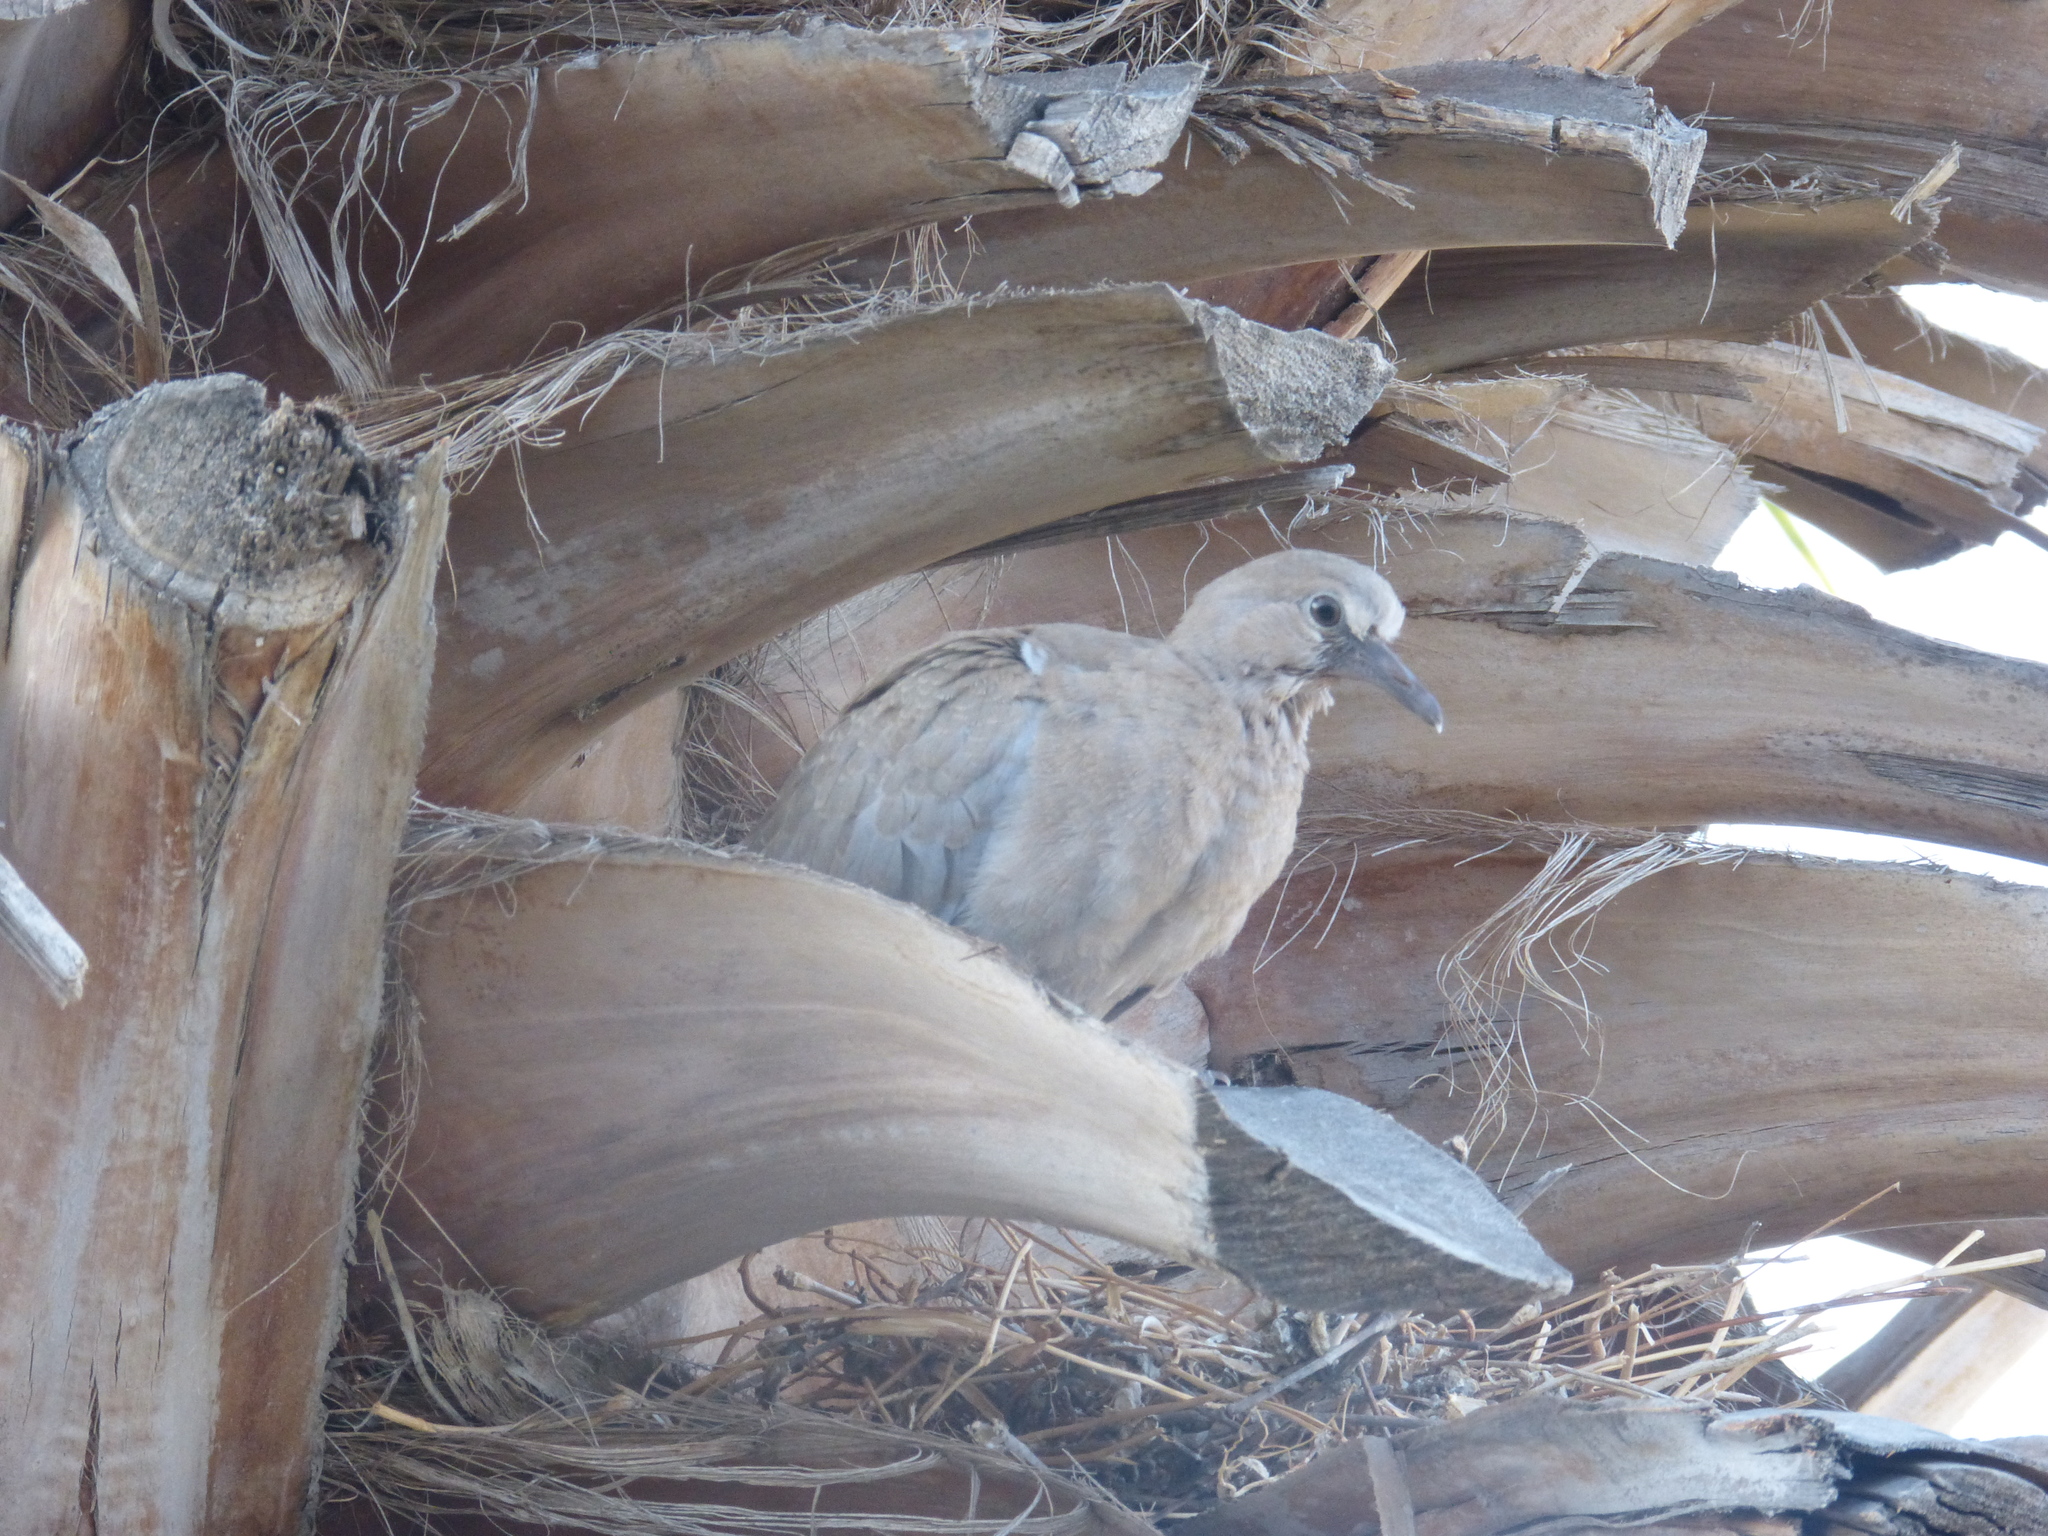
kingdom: Animalia
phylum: Chordata
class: Aves
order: Columbiformes
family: Columbidae
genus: Streptopelia
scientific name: Streptopelia decaocto
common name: Eurasian collared dove
